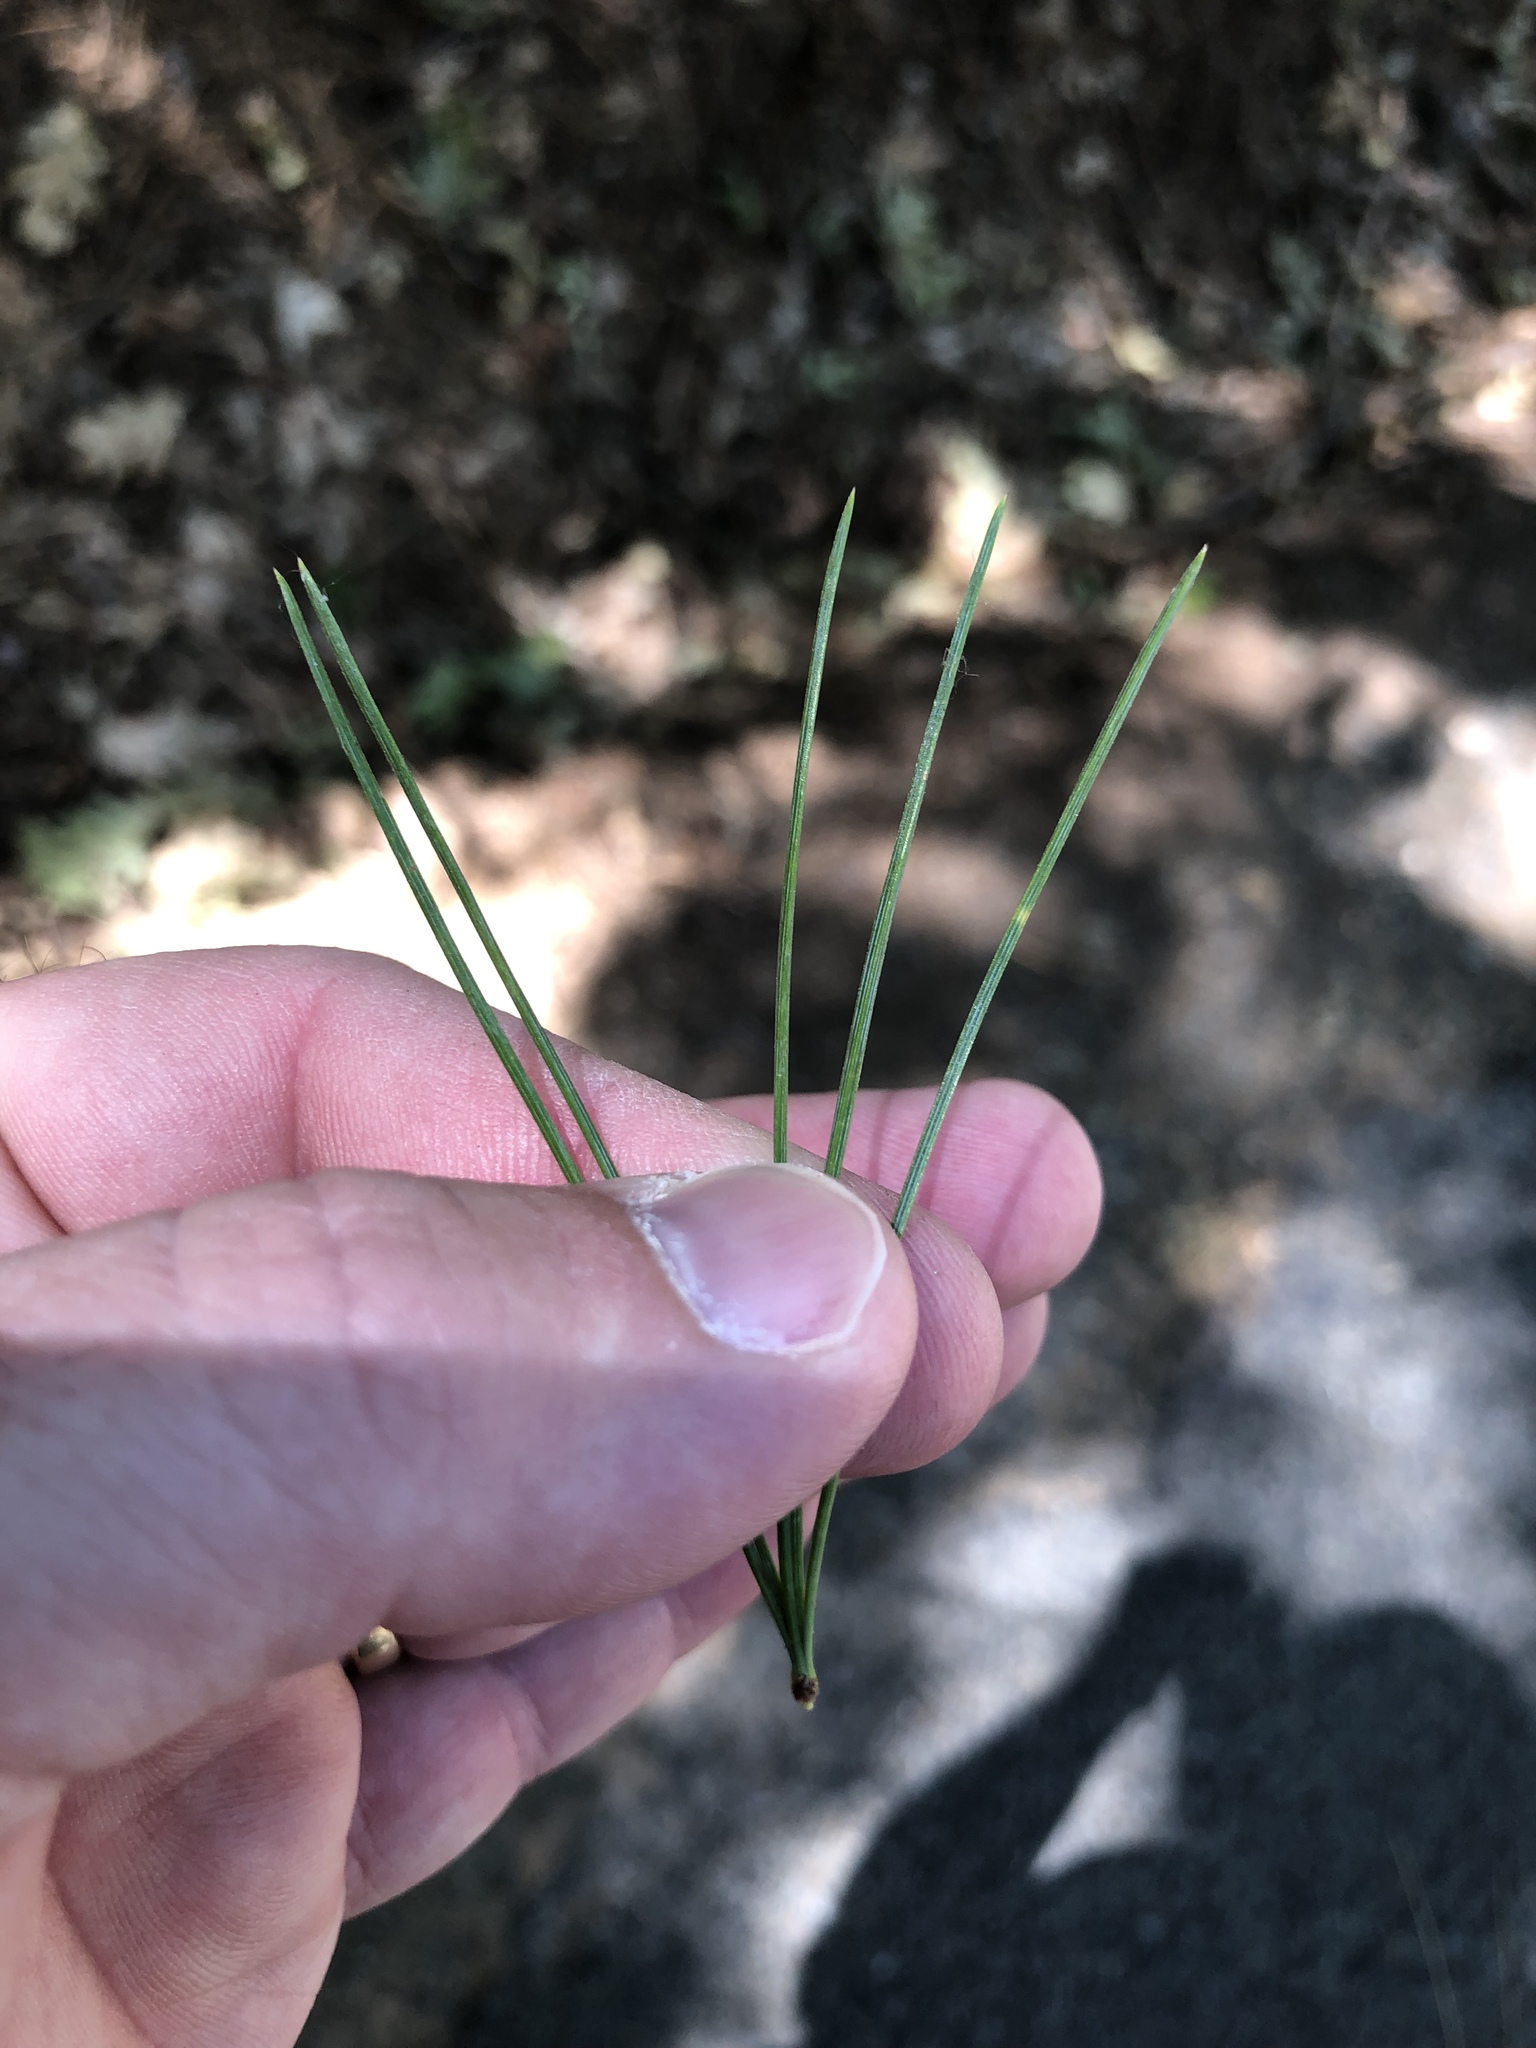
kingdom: Plantae
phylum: Tracheophyta
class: Pinopsida
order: Pinales
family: Pinaceae
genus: Pinus
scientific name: Pinus lambertiana
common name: Sugar pine
